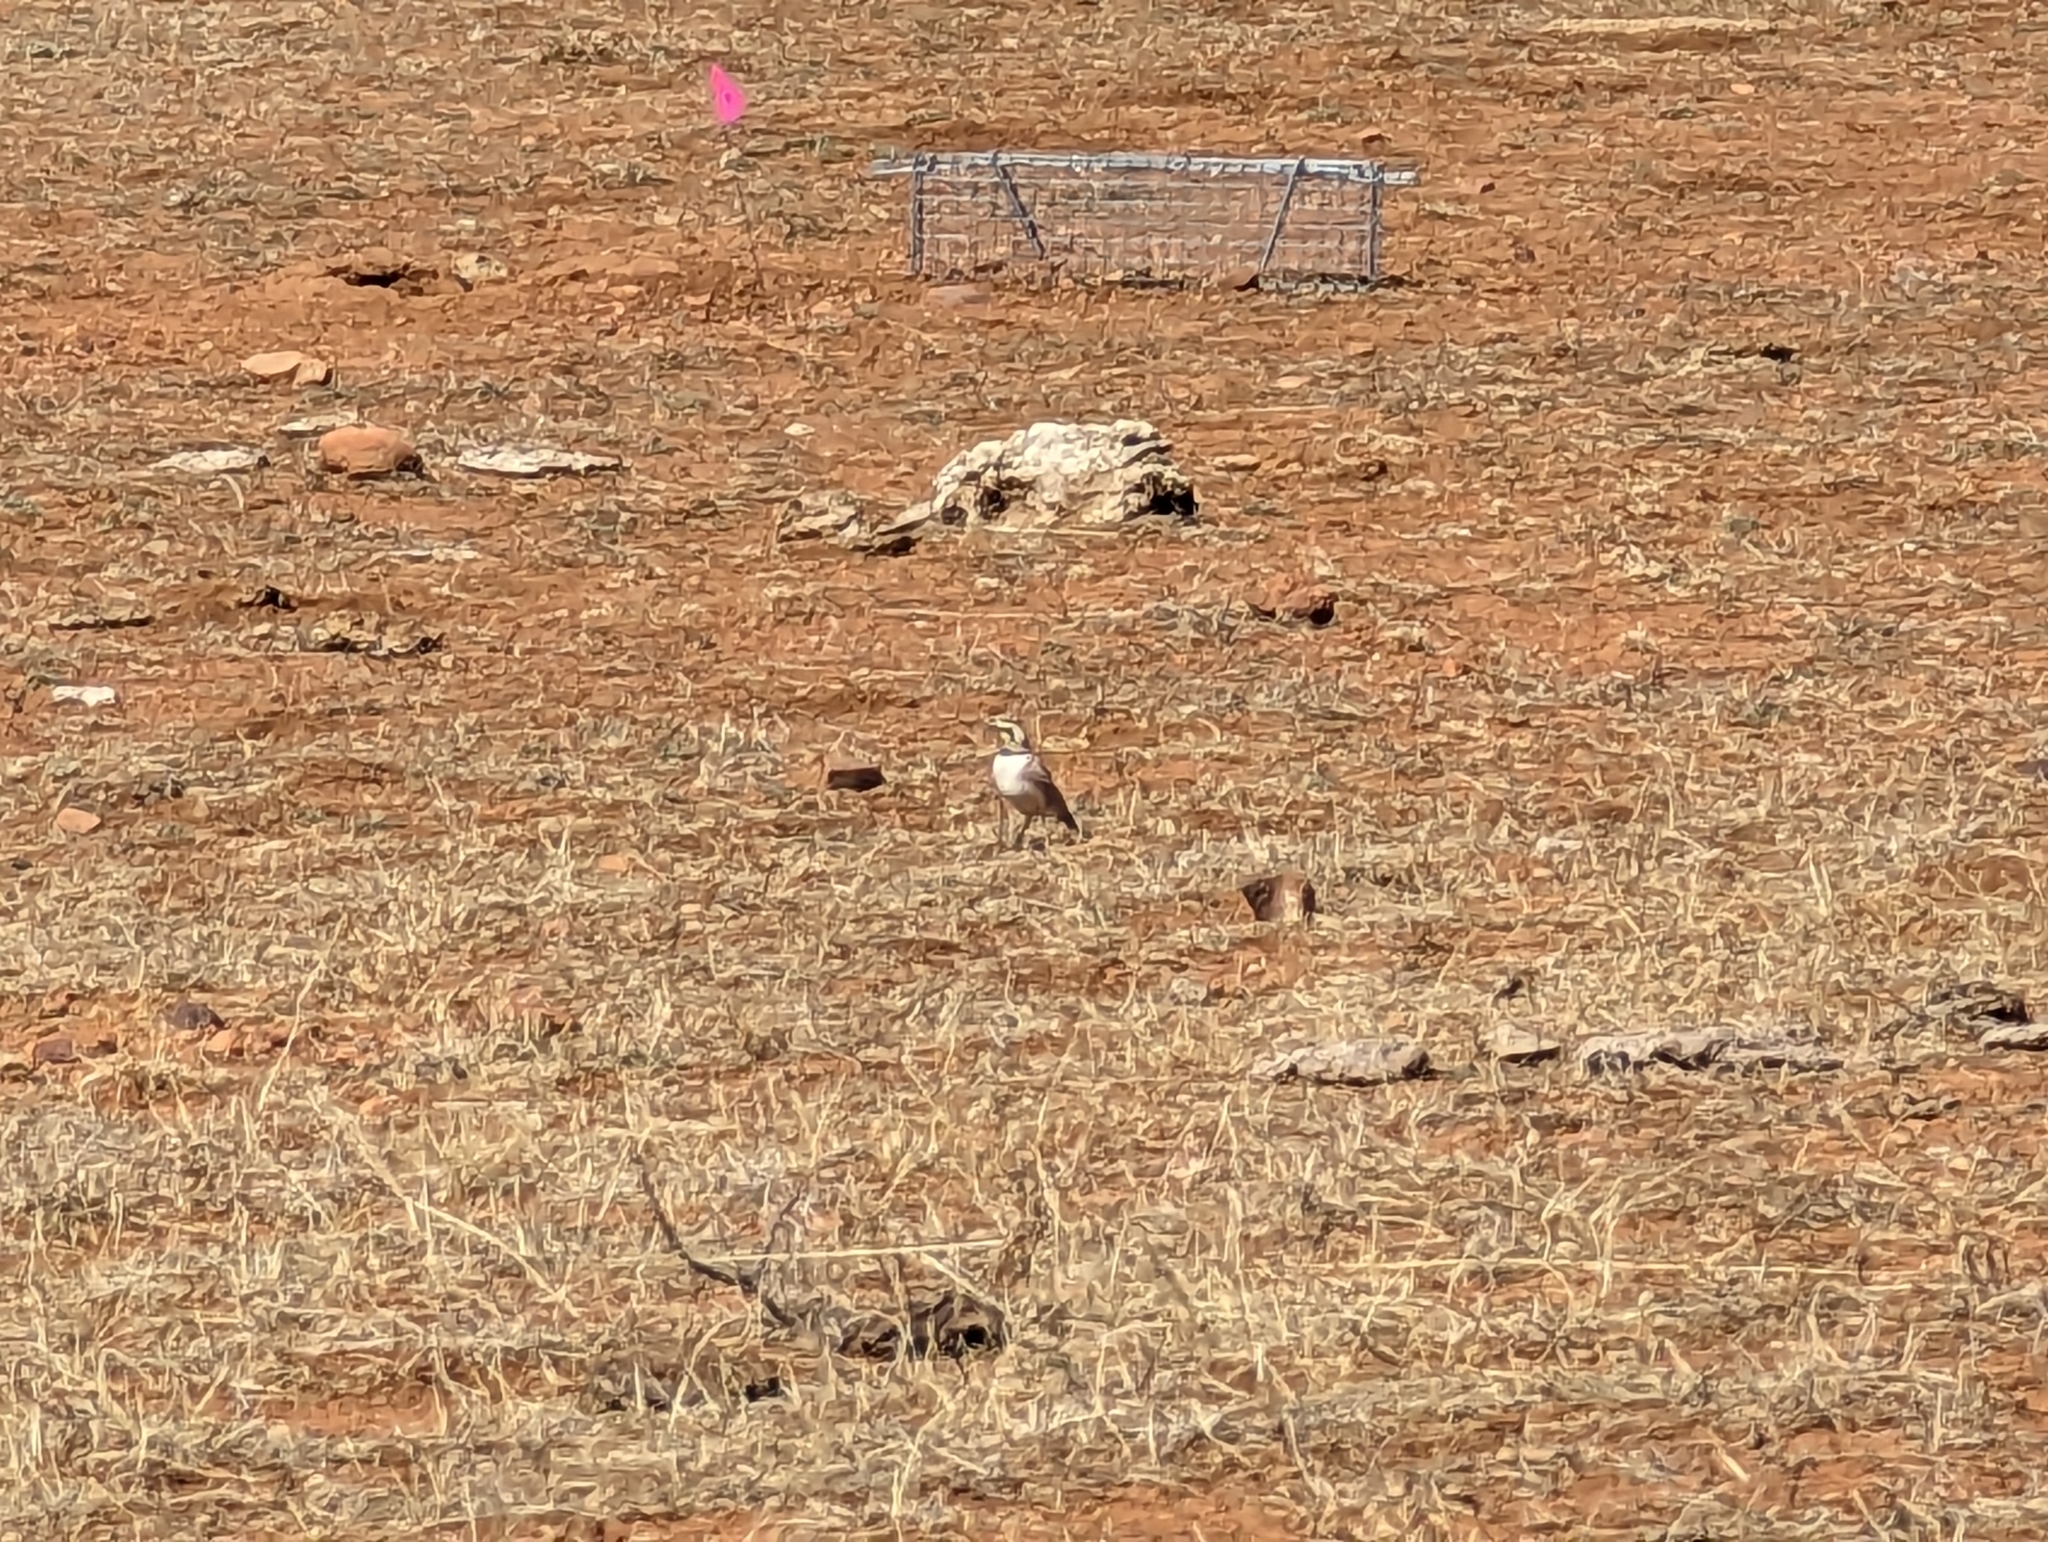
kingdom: Animalia
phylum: Chordata
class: Aves
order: Passeriformes
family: Alaudidae
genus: Eremophila
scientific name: Eremophila alpestris
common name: Horned lark
